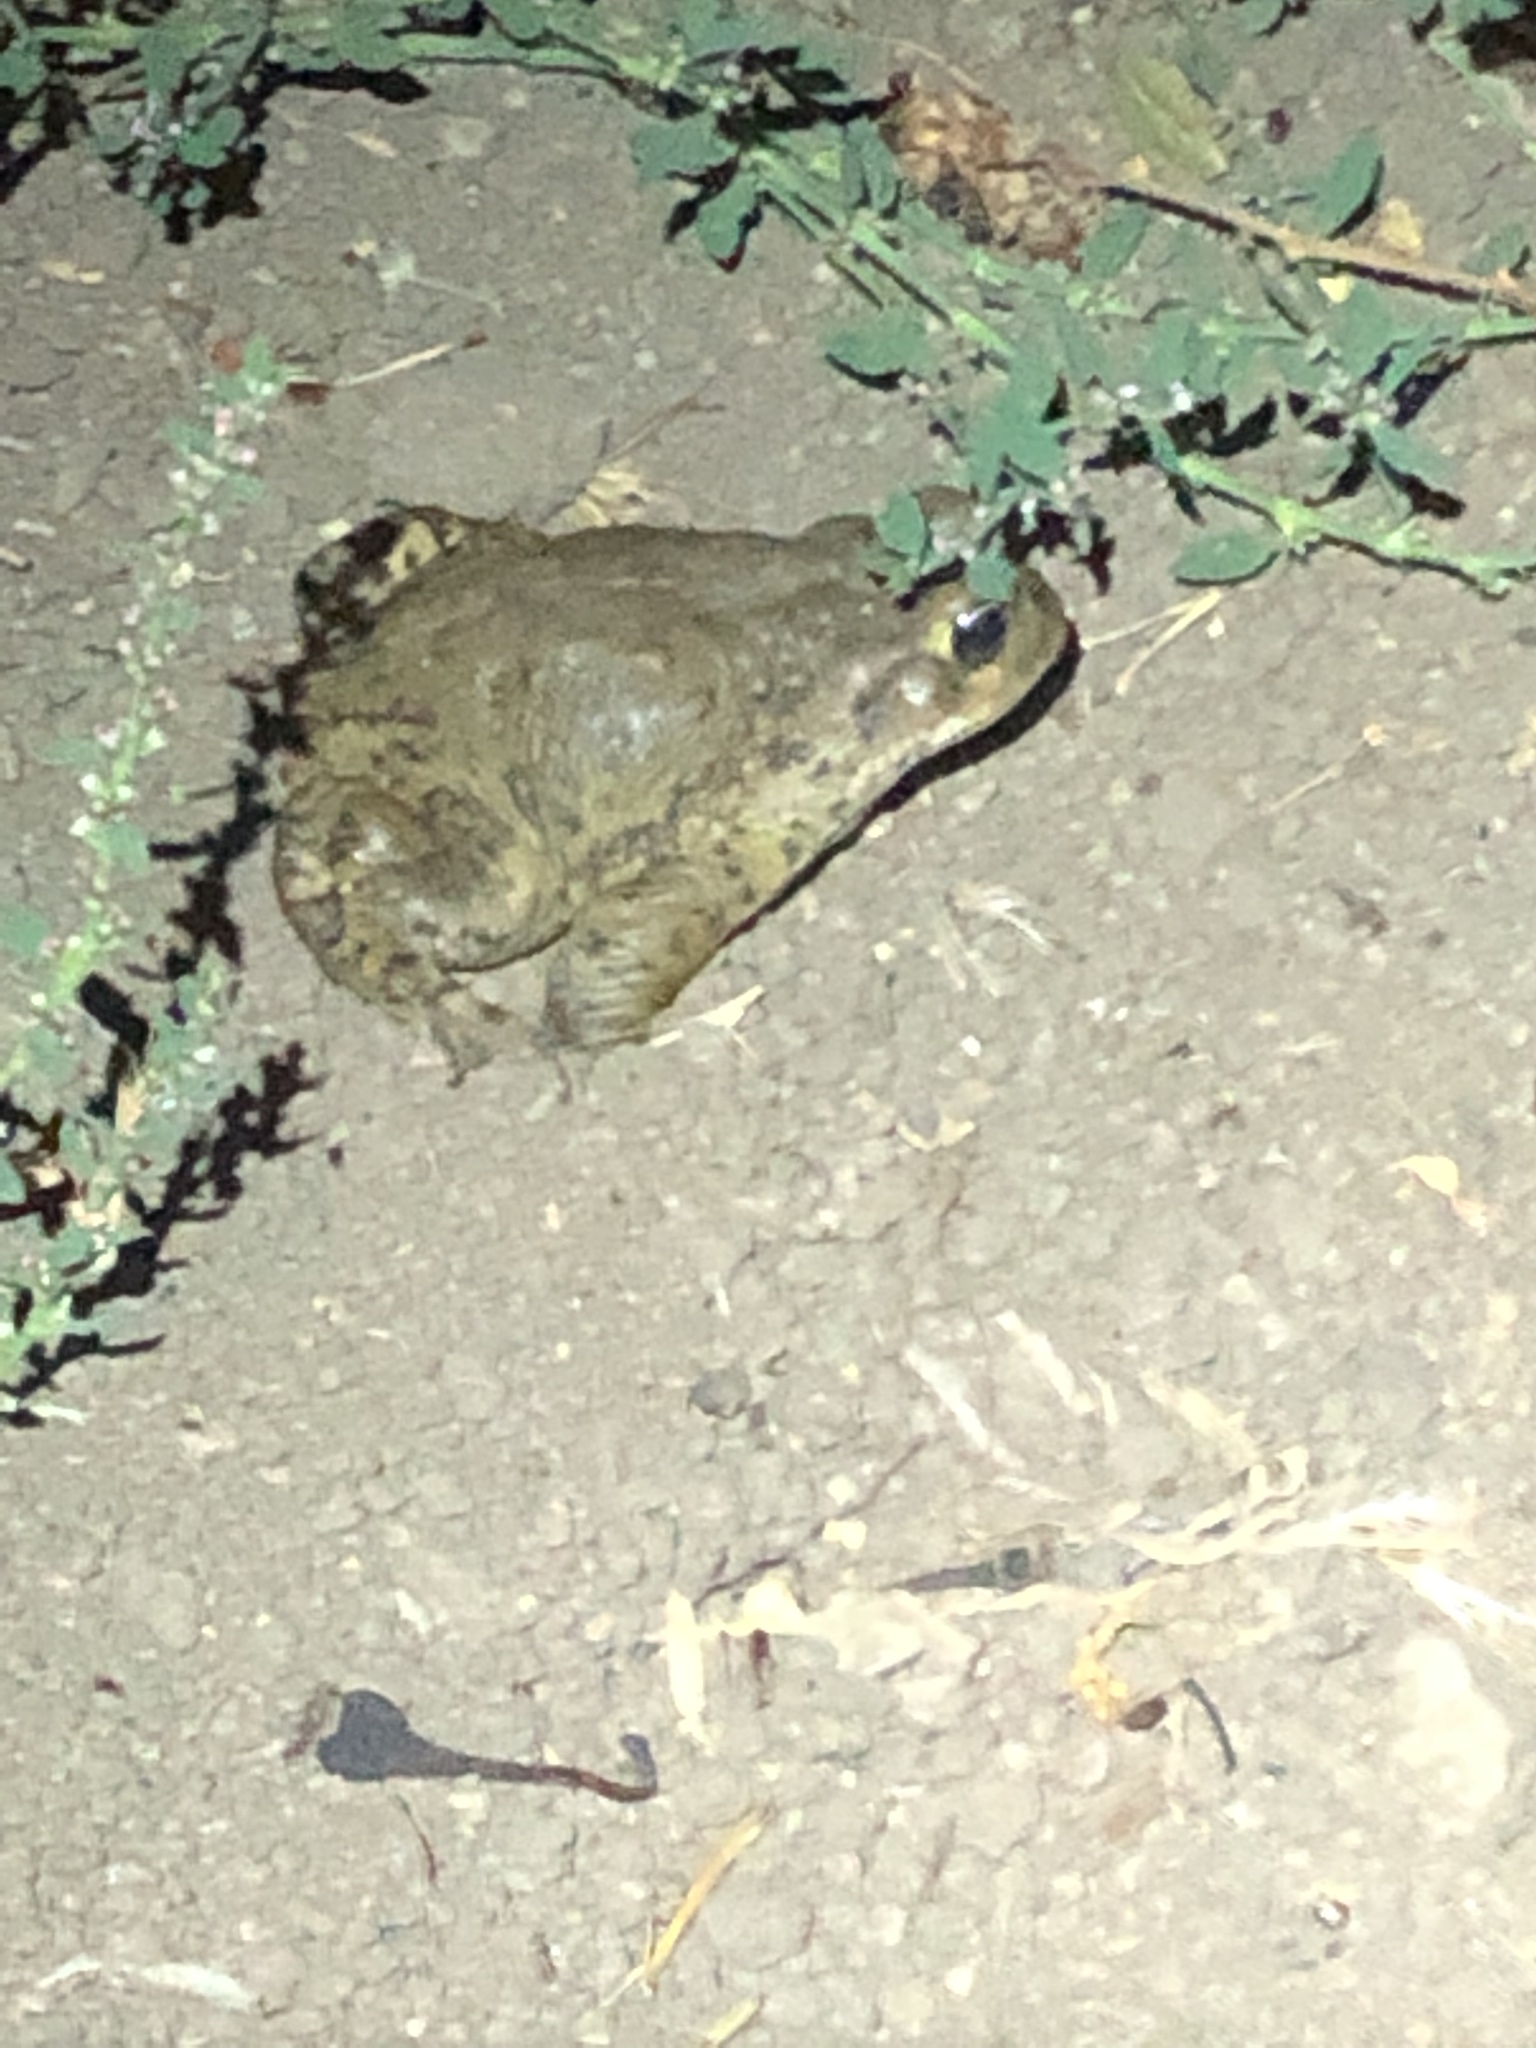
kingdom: Animalia
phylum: Chordata
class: Amphibia
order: Anura
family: Bufonidae
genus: Anaxyrus
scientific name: Anaxyrus boreas
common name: Western toad
